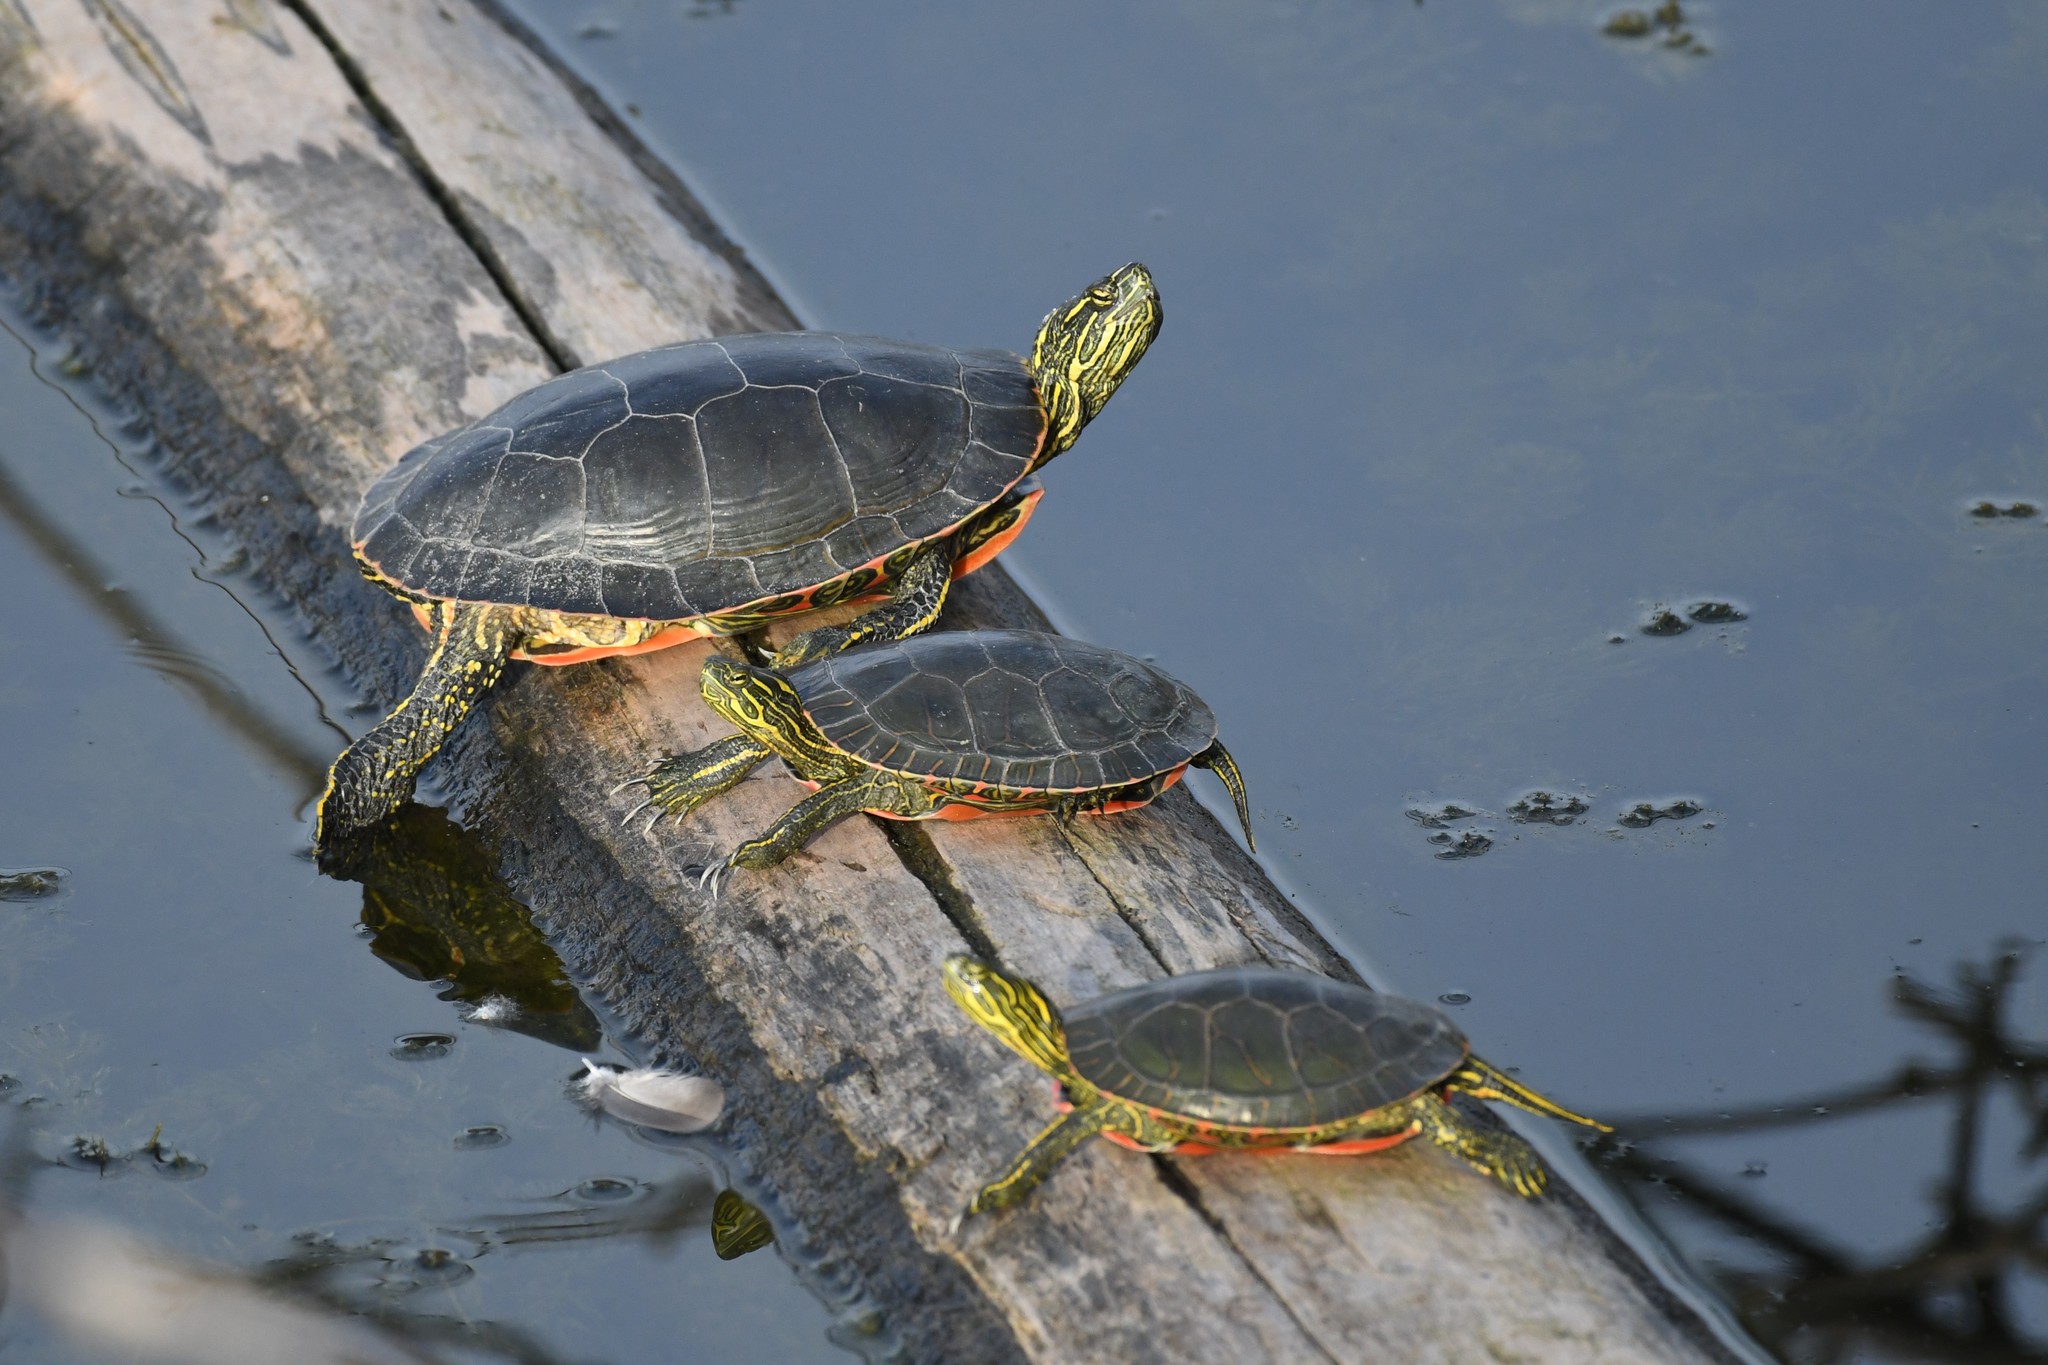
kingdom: Animalia
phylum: Chordata
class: Testudines
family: Emydidae
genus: Chrysemys
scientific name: Chrysemys picta
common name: Painted turtle
